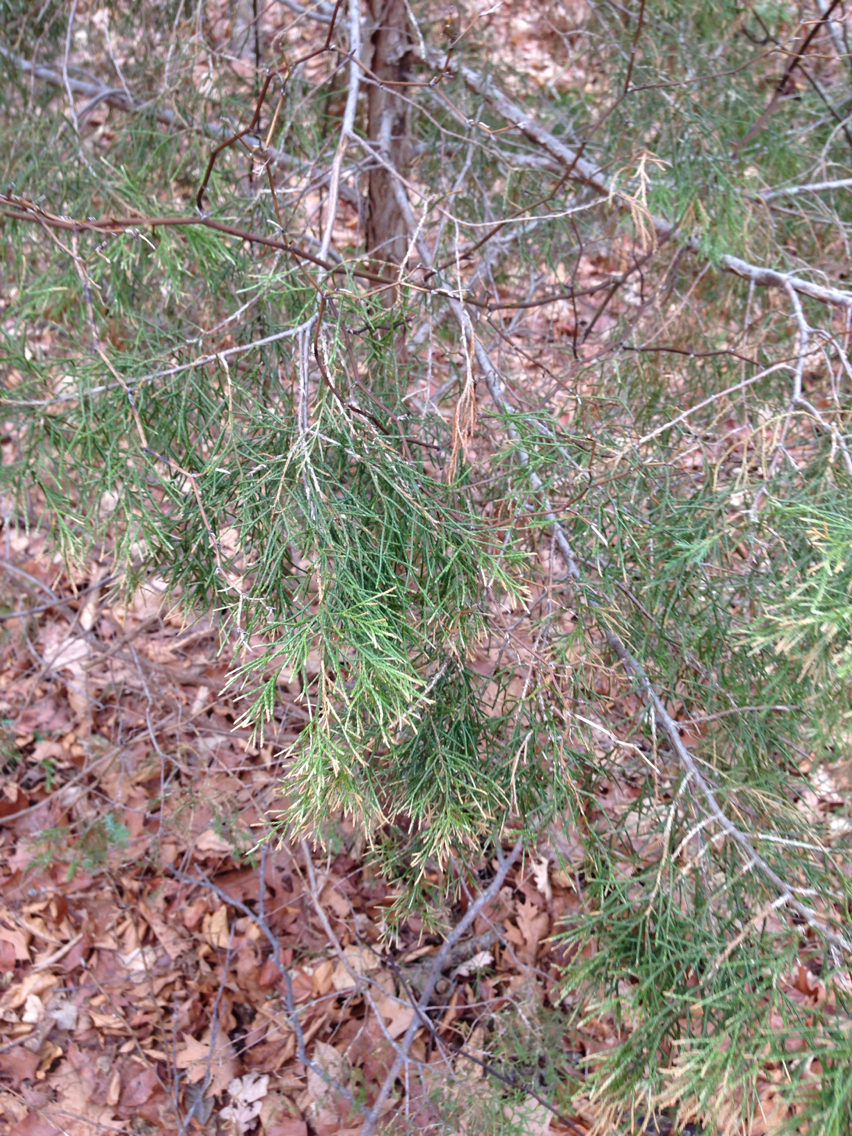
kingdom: Plantae
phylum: Tracheophyta
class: Pinopsida
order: Pinales
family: Cupressaceae
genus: Juniperus
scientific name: Juniperus virginiana
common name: Red juniper
